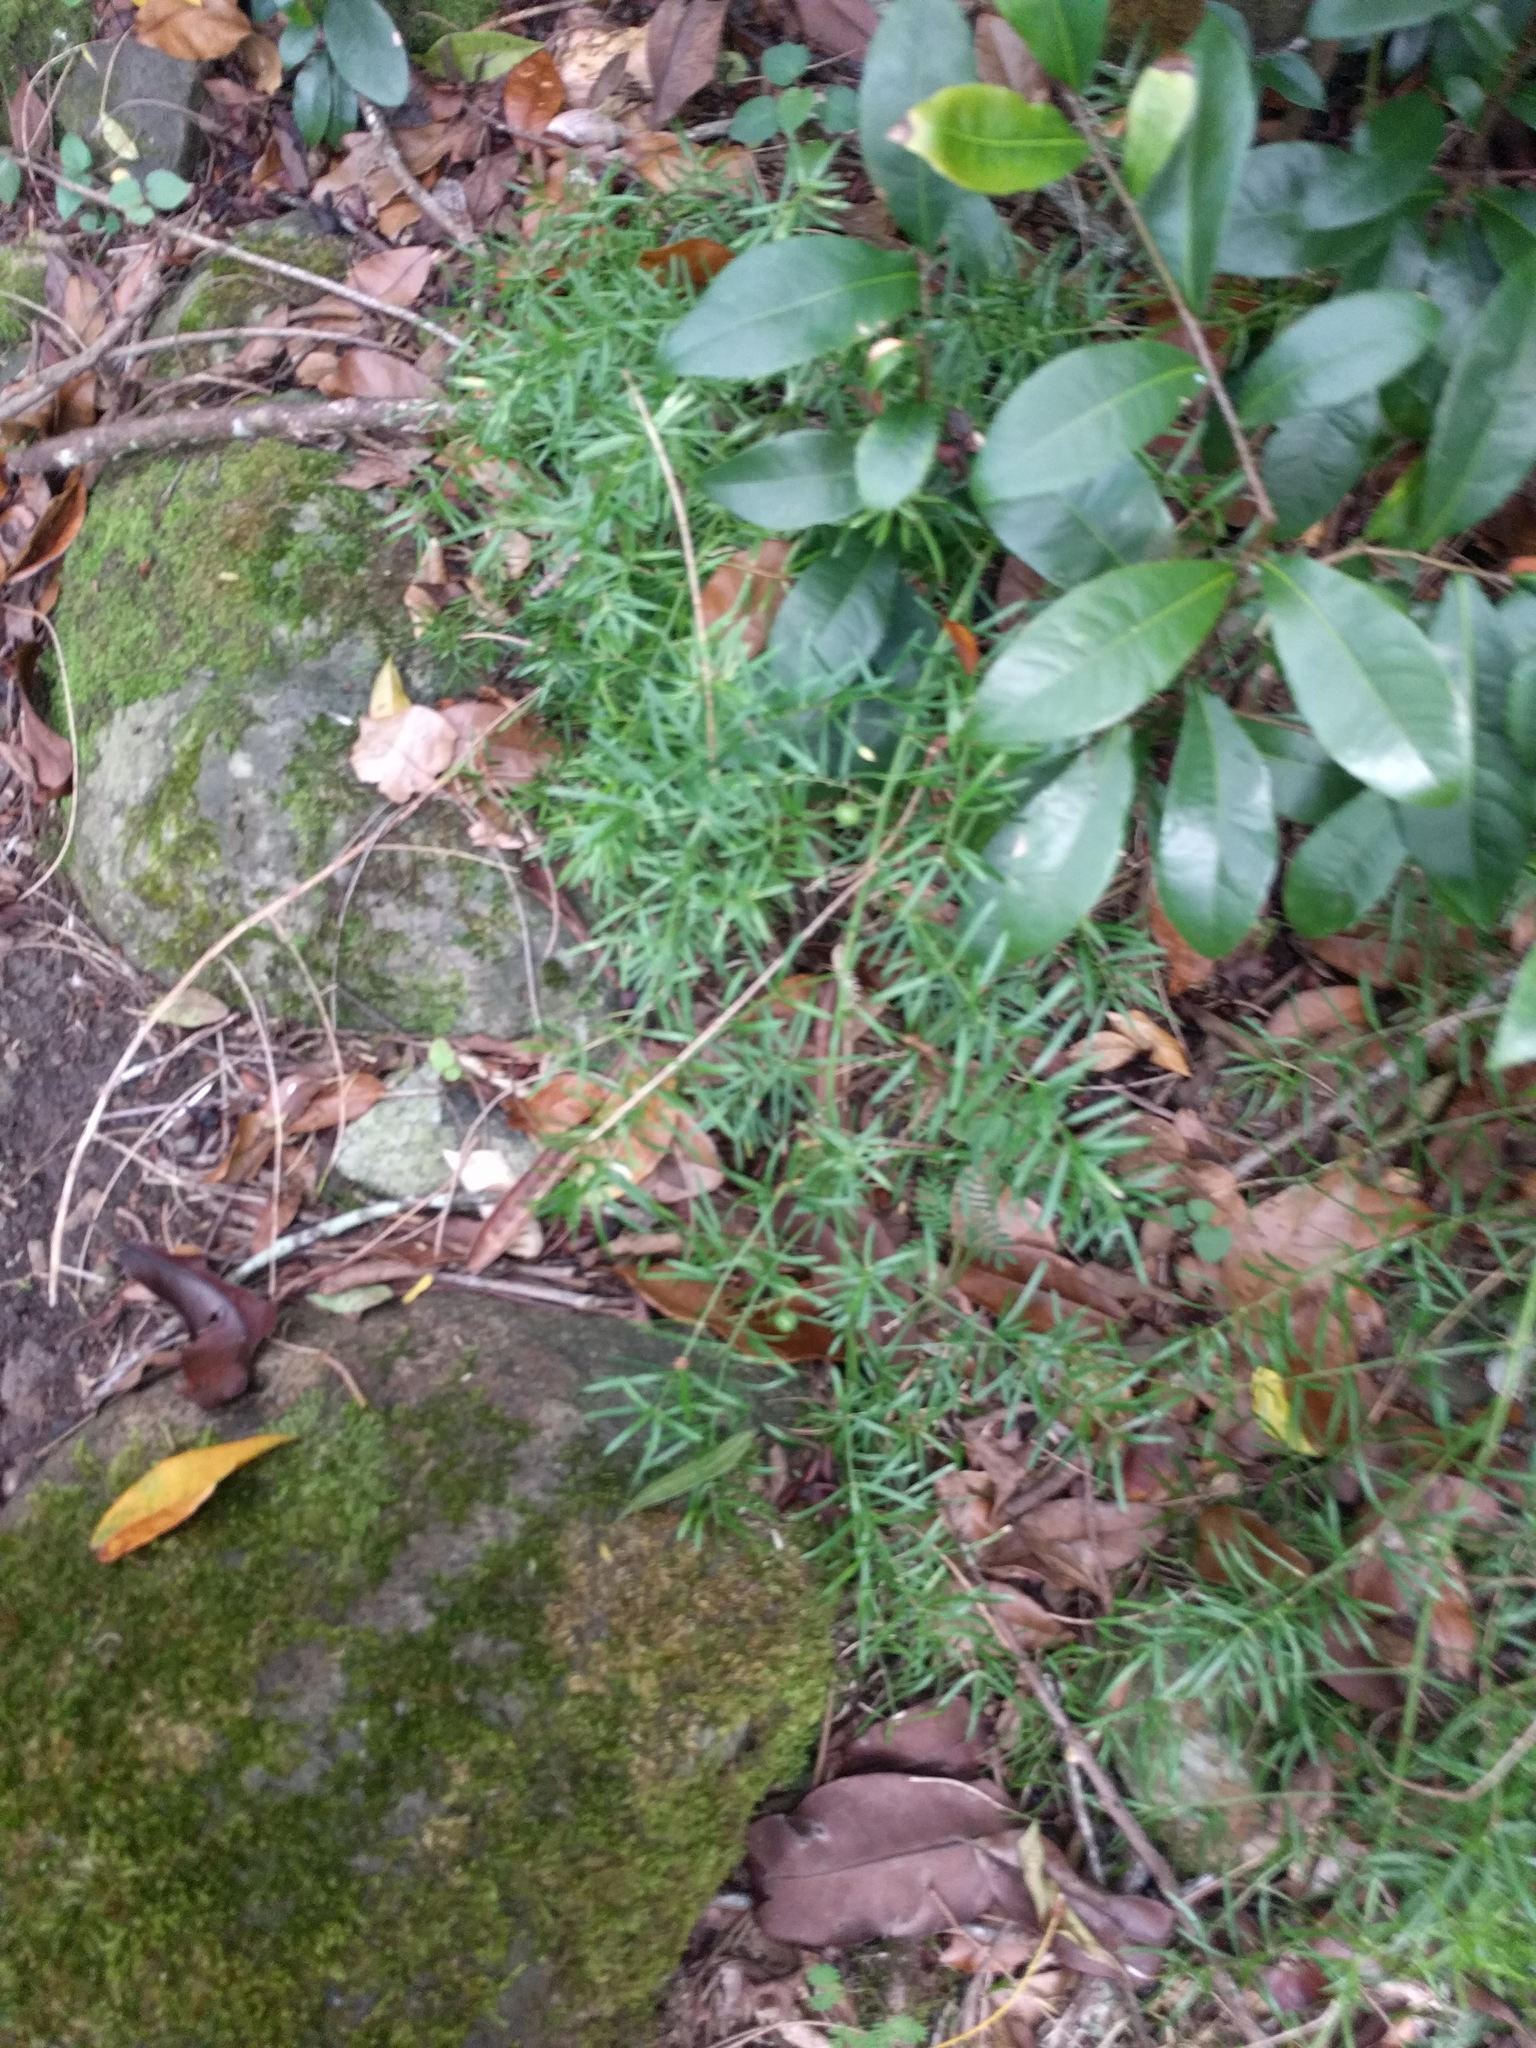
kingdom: Plantae
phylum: Tracheophyta
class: Liliopsida
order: Asparagales
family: Asparagaceae
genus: Asparagus
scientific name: Asparagus aethiopicus
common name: Sprenger's asparagus fern
